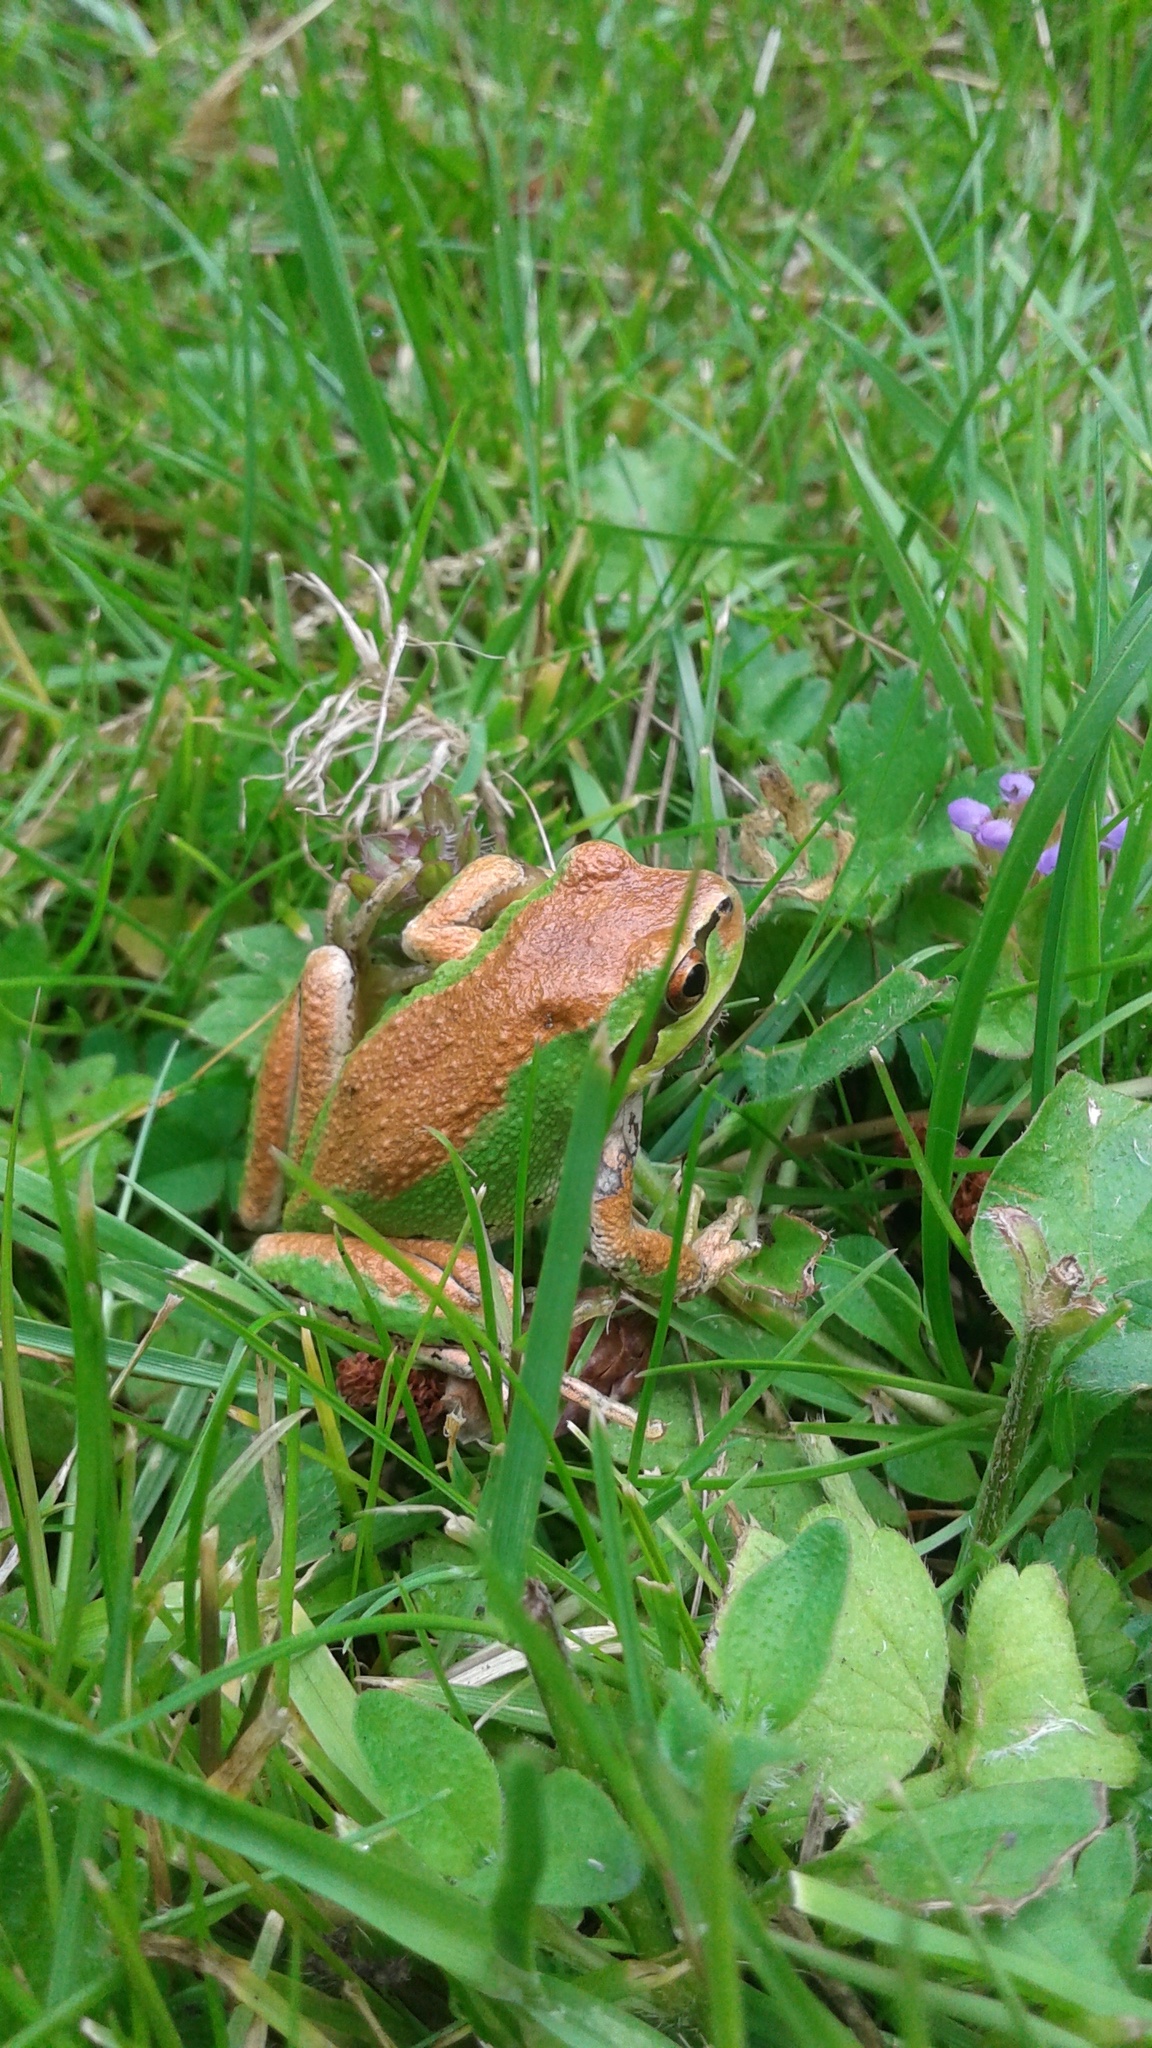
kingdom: Animalia
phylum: Chordata
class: Amphibia
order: Anura
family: Hylidae
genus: Pseudacris
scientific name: Pseudacris regilla
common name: Pacific chorus frog
